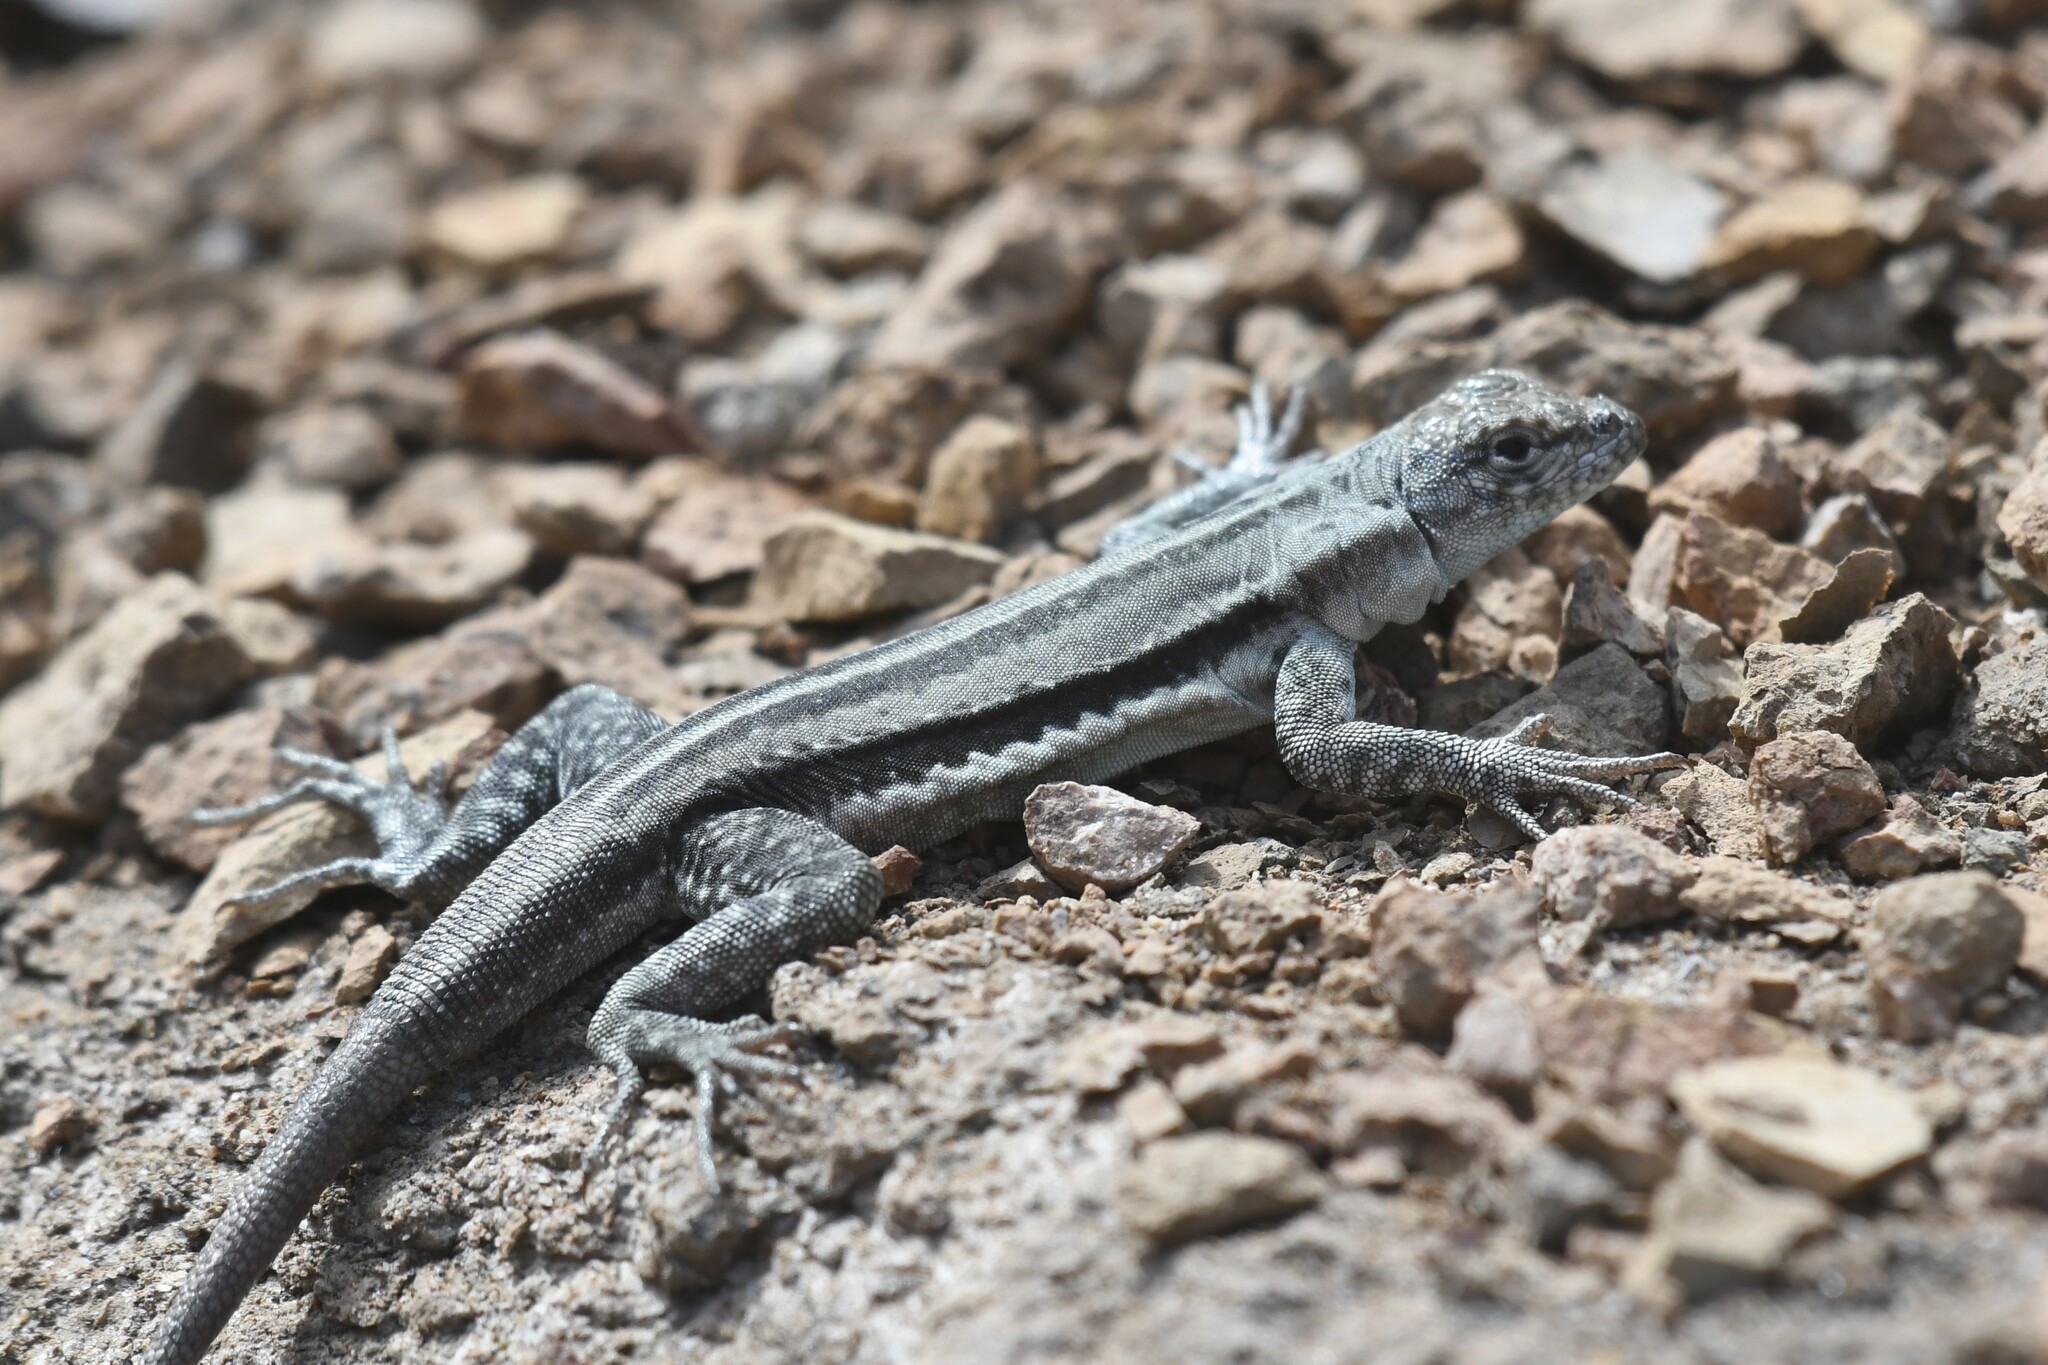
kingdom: Animalia
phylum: Chordata
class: Squamata
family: Tropiduridae
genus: Microlophus
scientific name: Microlophus quadrivittatus
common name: Four-banded pacific iguana
